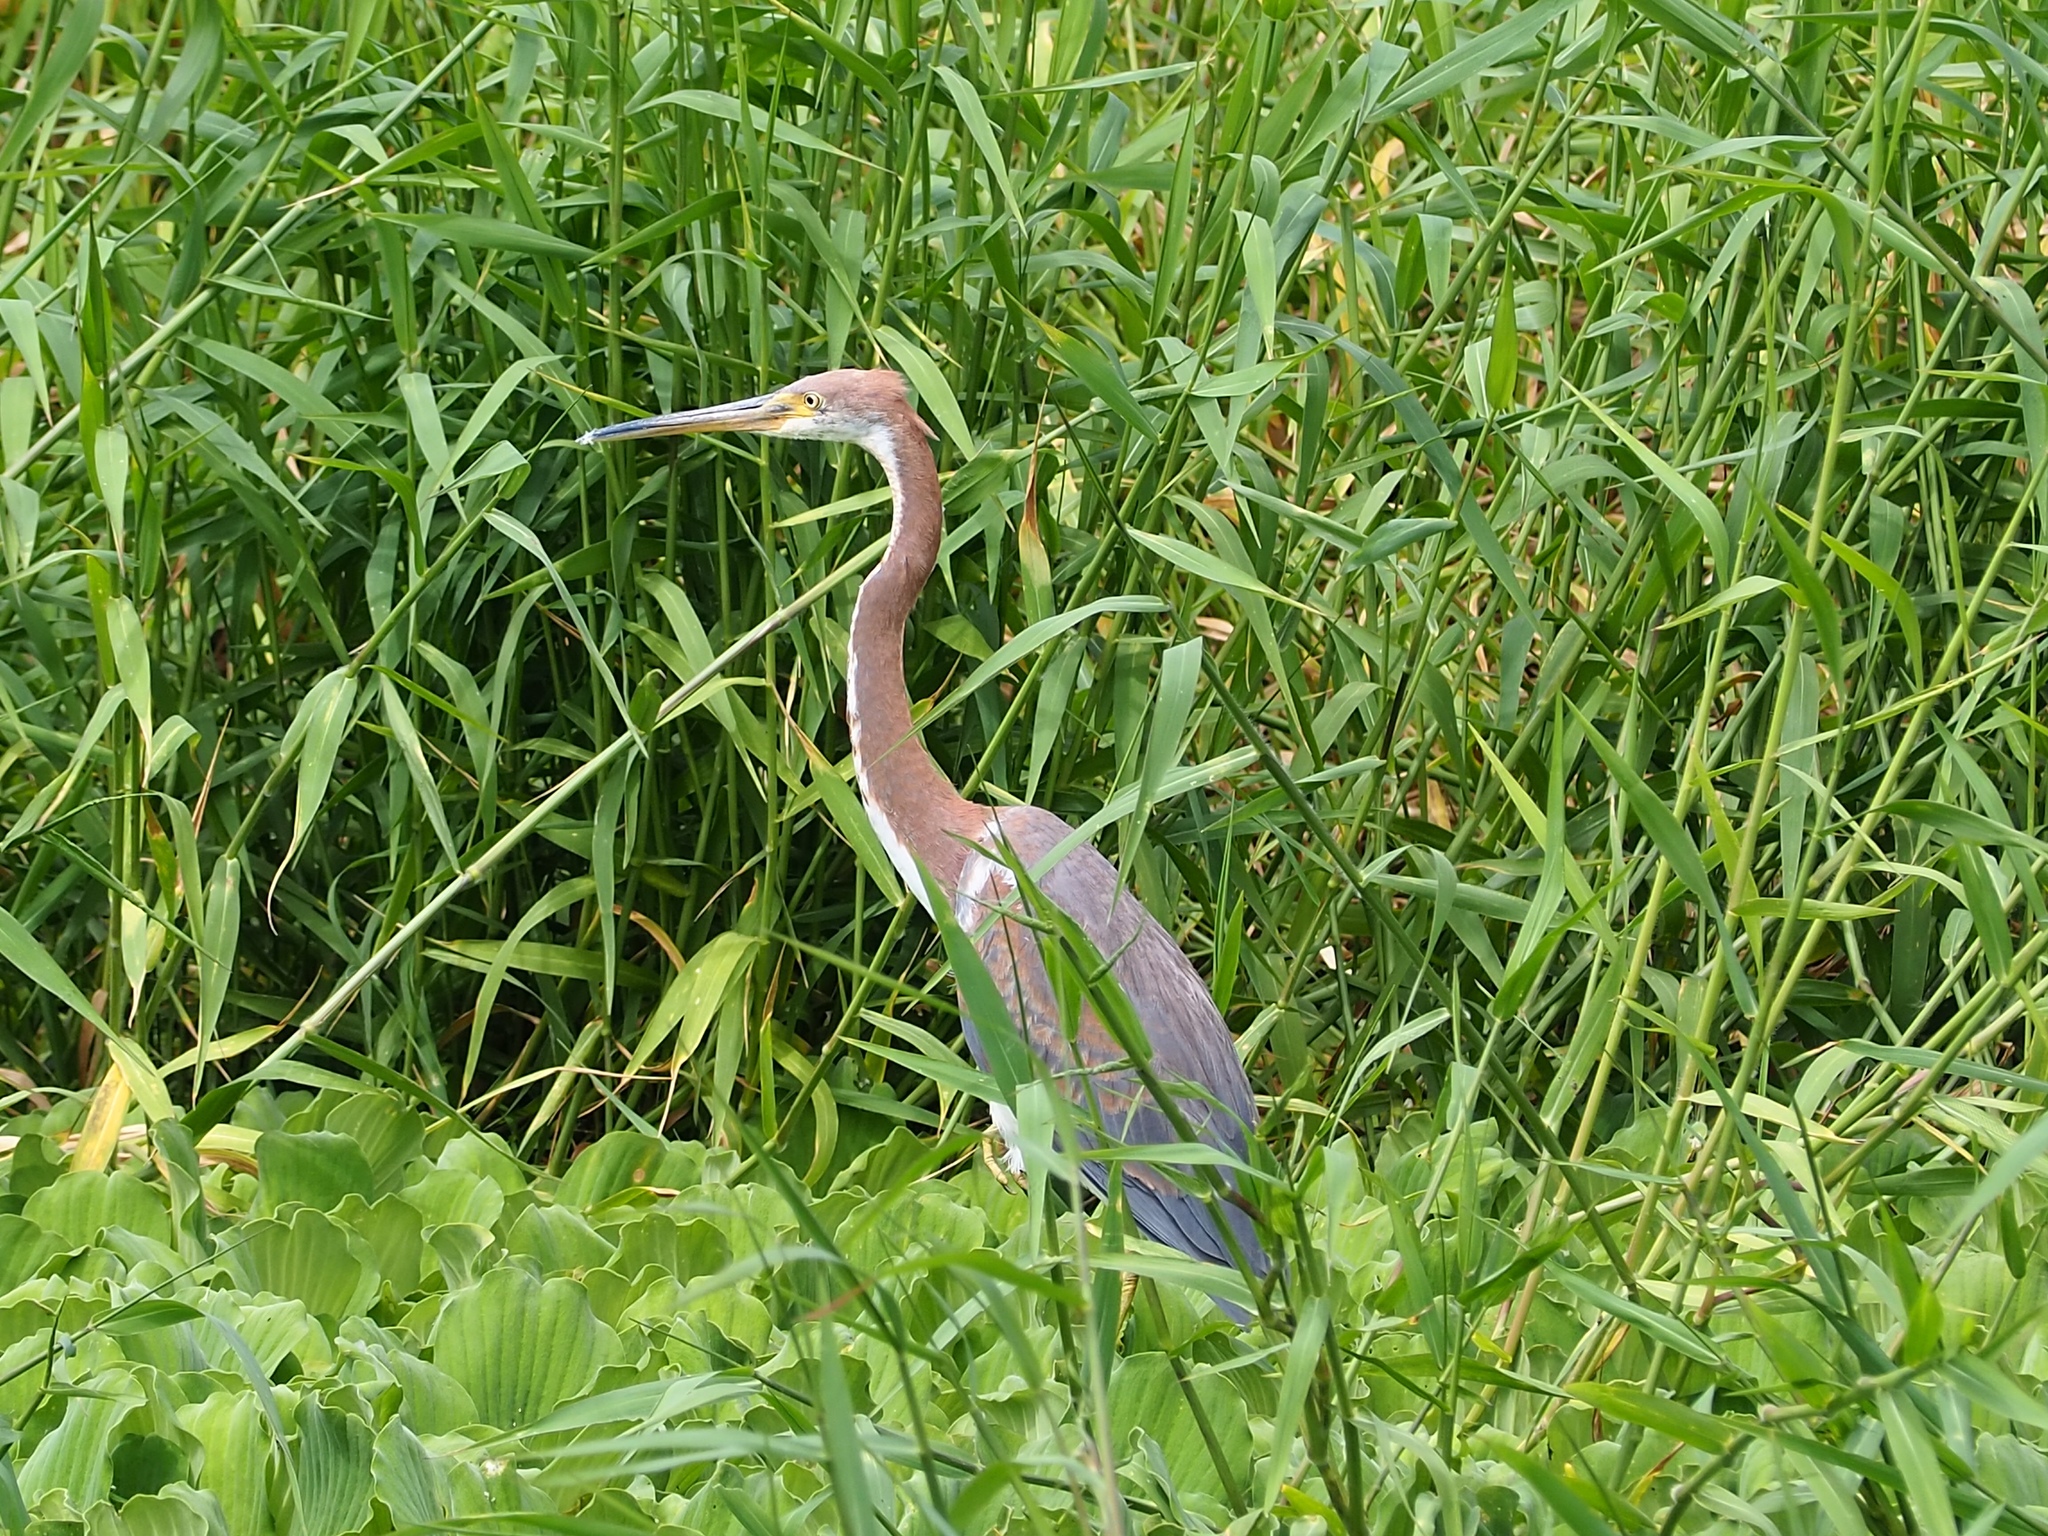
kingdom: Animalia
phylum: Chordata
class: Aves
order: Pelecaniformes
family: Ardeidae
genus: Egretta
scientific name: Egretta tricolor
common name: Tricolored heron
